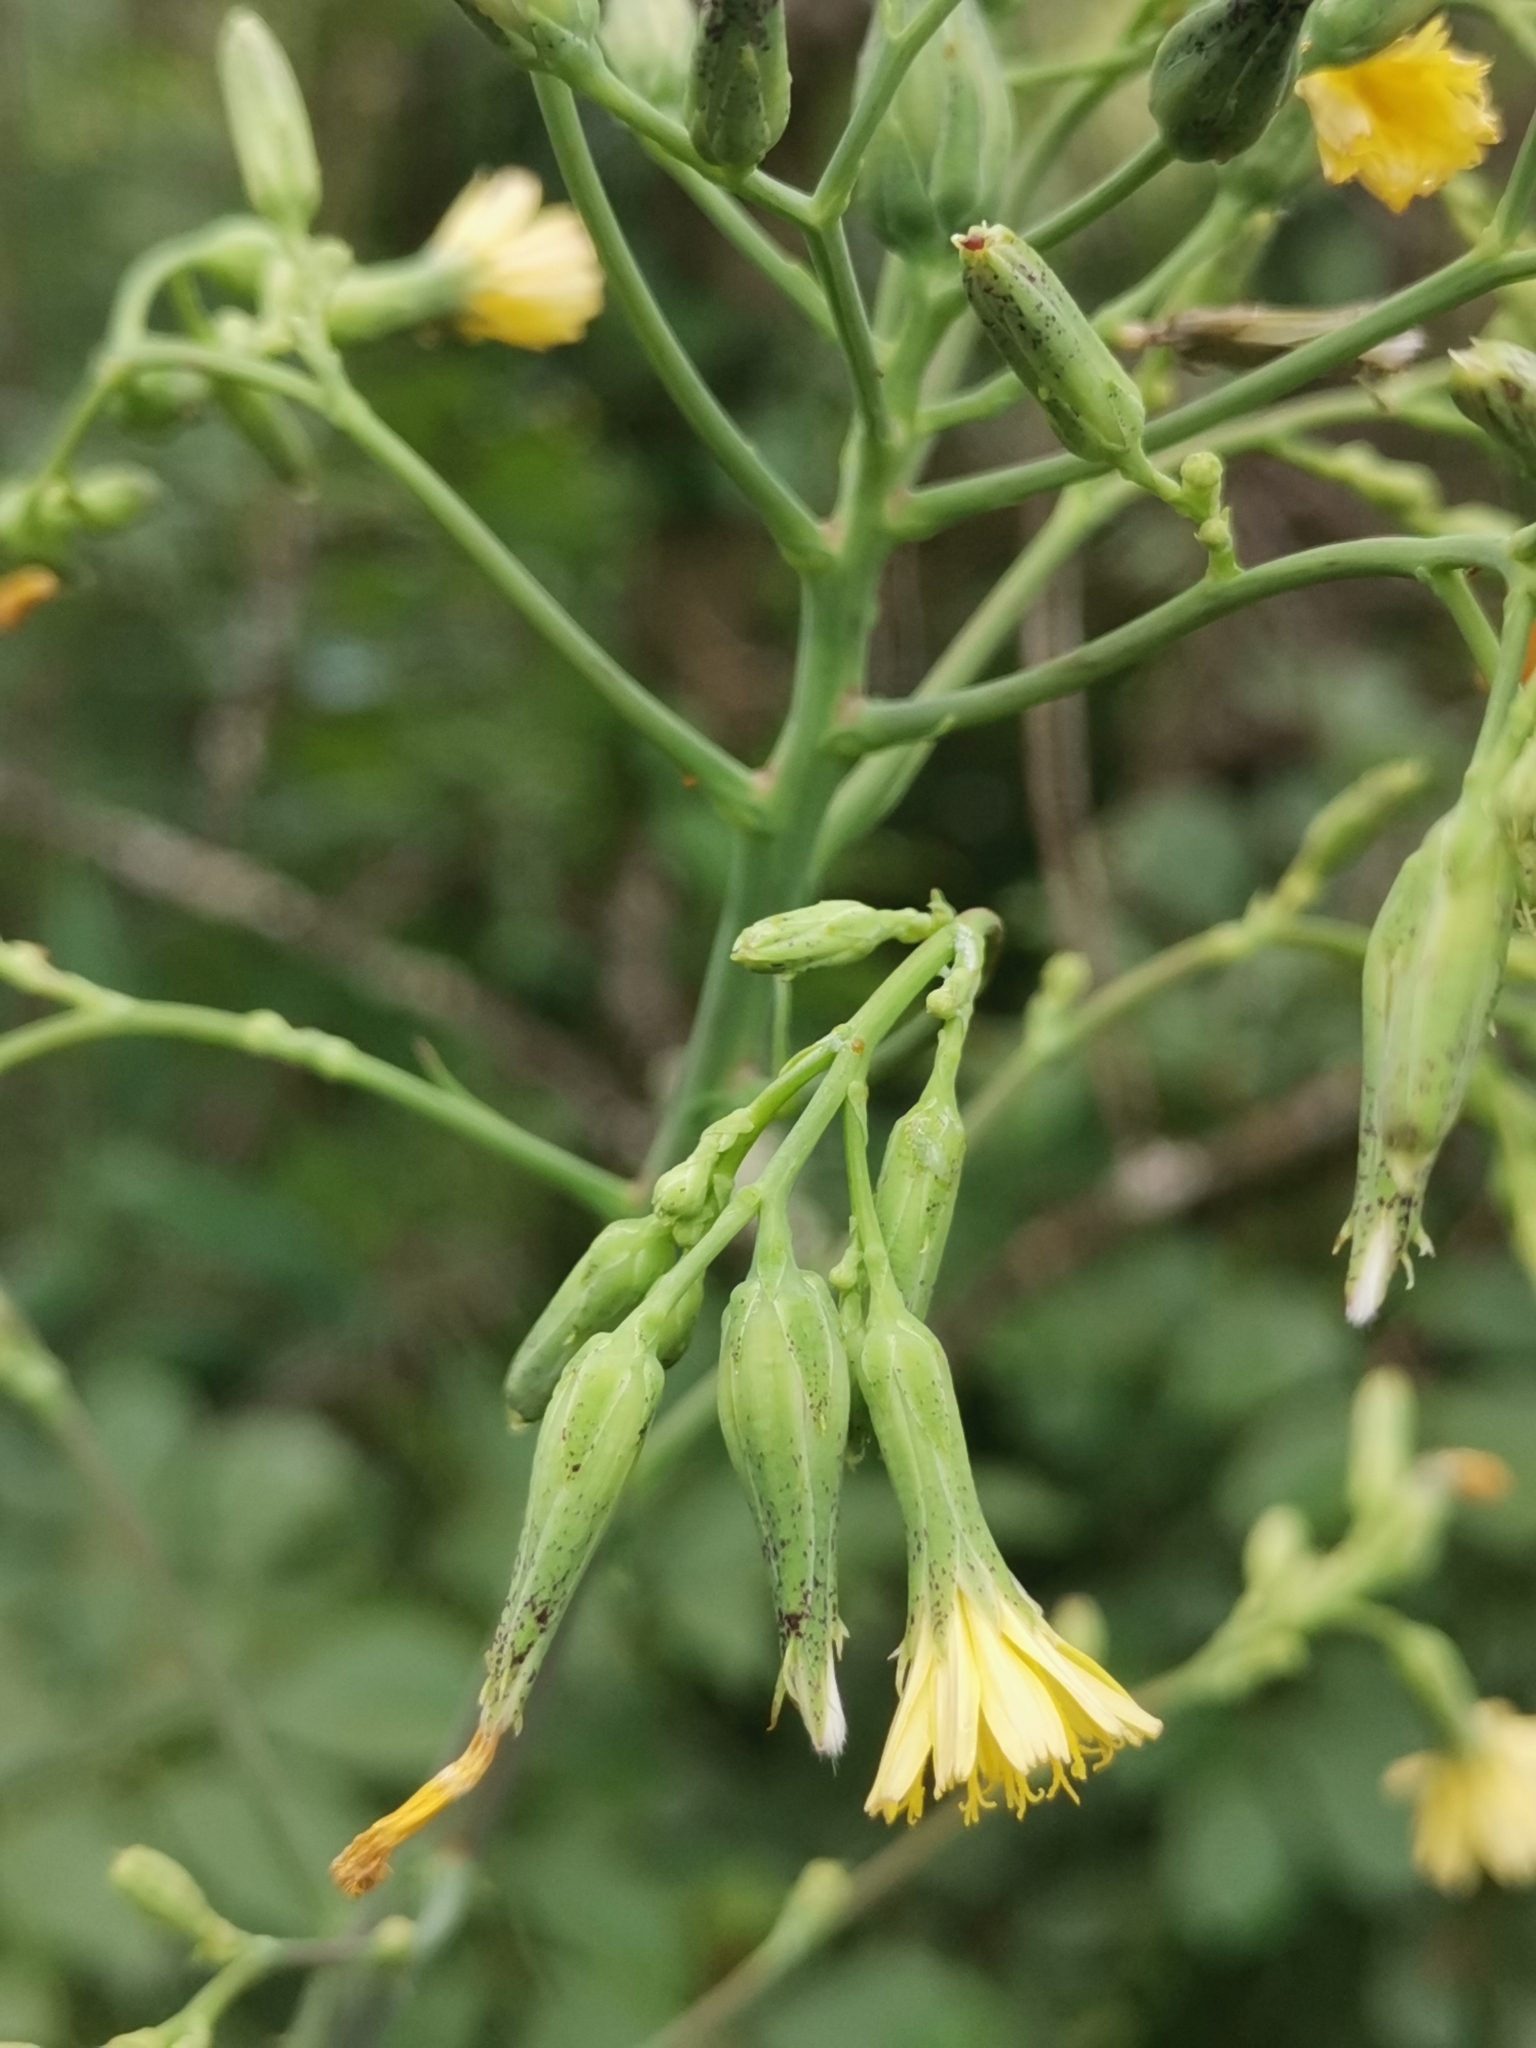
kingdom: Plantae
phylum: Tracheophyta
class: Magnoliopsida
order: Asterales
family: Asteraceae
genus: Lactuca
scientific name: Lactuca virosa
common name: Great lettuce
